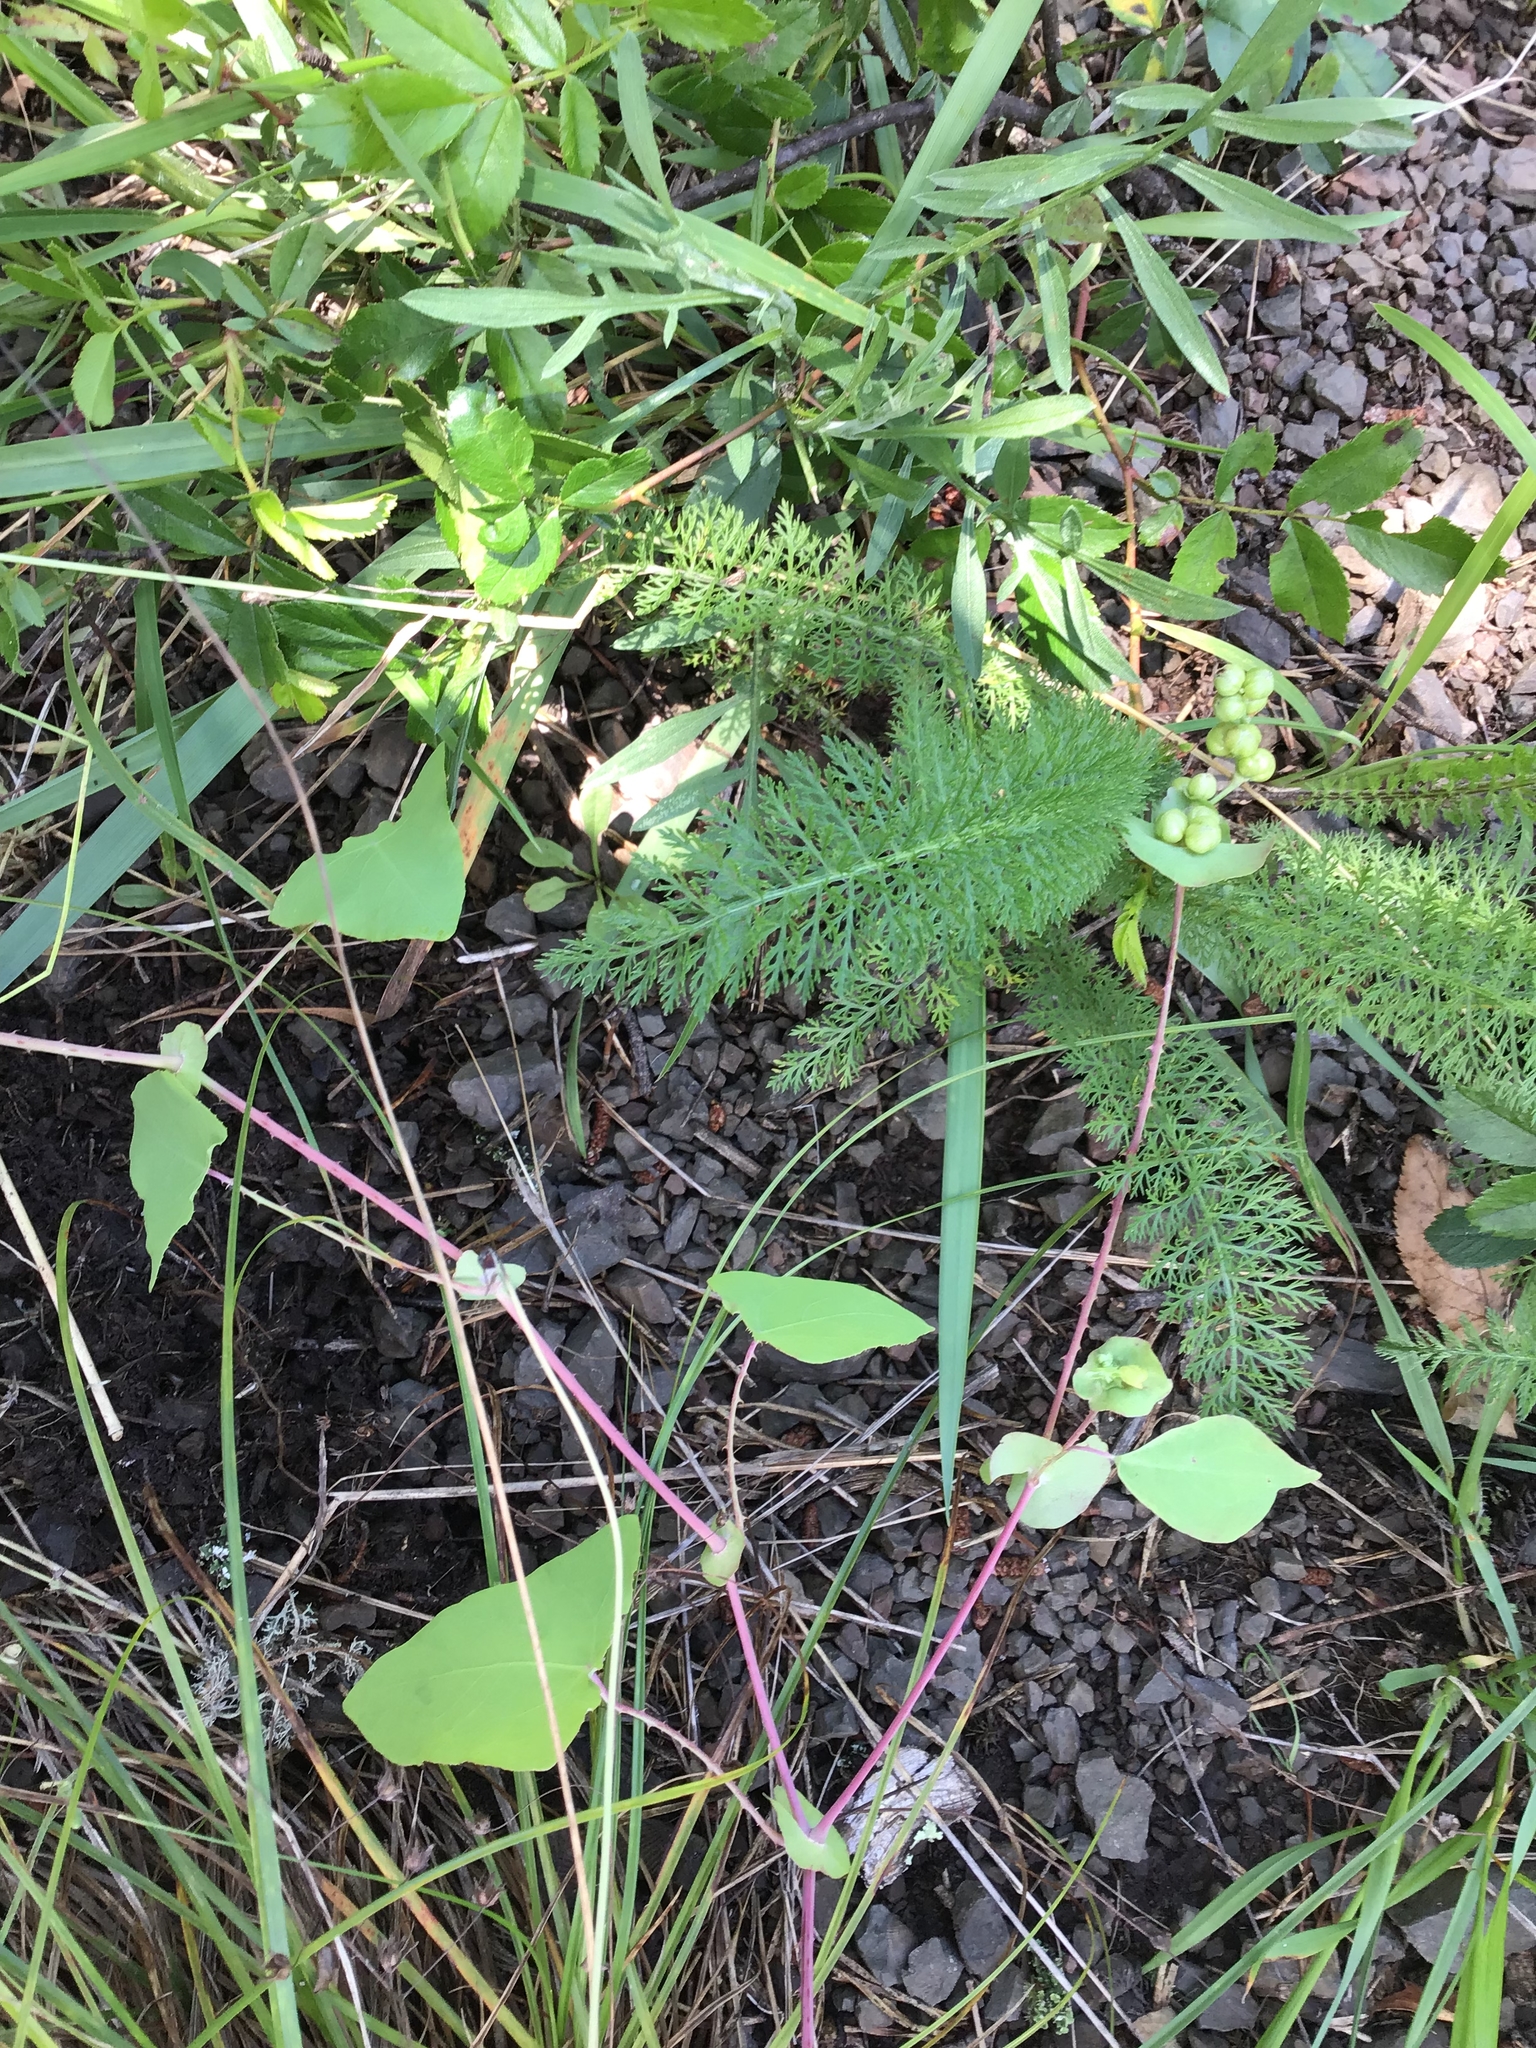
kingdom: Plantae
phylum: Tracheophyta
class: Magnoliopsida
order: Caryophyllales
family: Polygonaceae
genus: Persicaria
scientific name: Persicaria perfoliata
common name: Asiatic tearthumb
